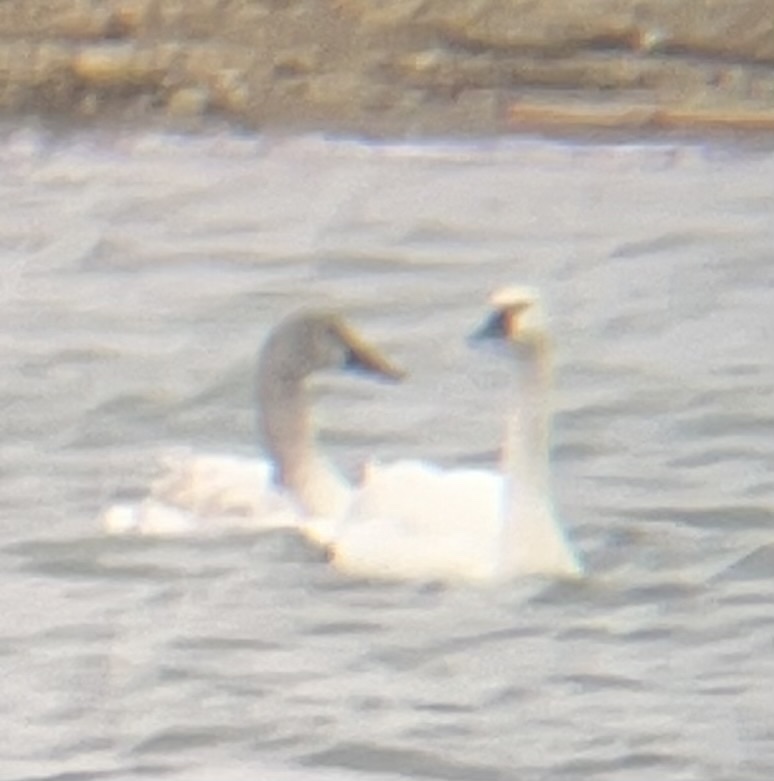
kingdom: Animalia
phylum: Chordata
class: Aves
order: Anseriformes
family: Anatidae
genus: Cygnus
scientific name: Cygnus columbianus
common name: Tundra swan
